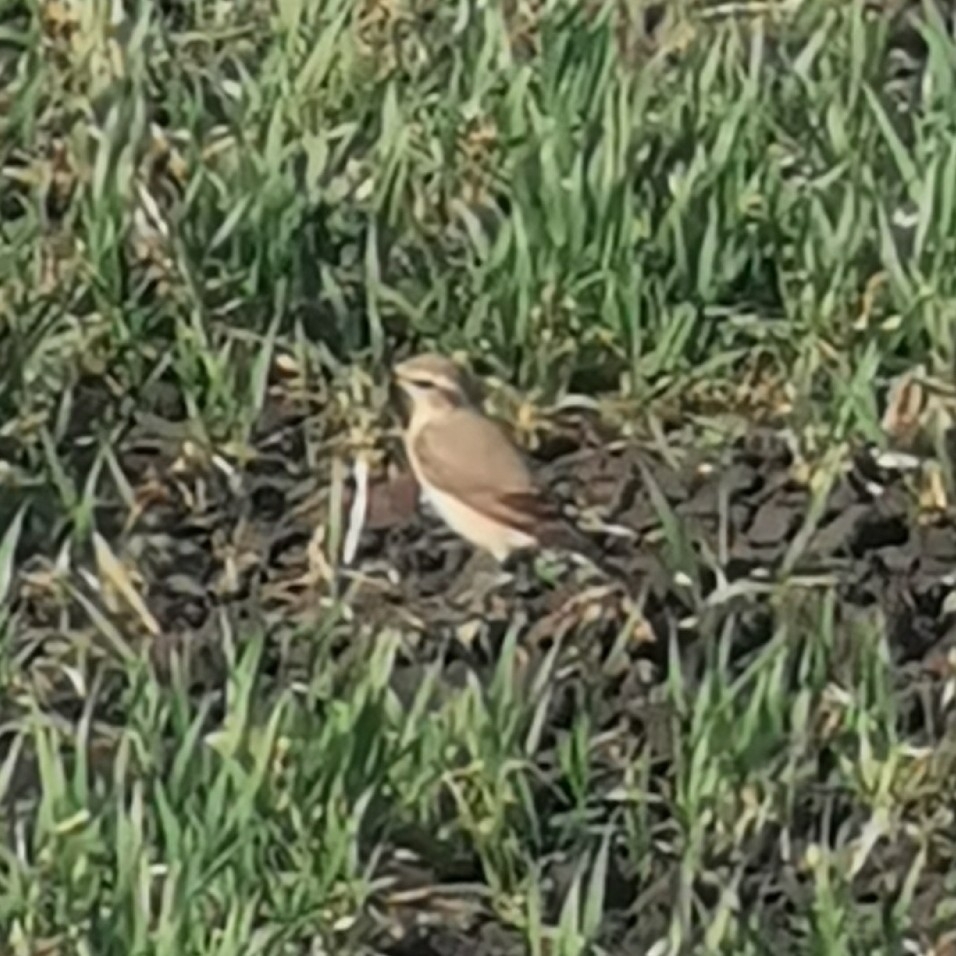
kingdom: Animalia
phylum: Chordata
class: Aves
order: Passeriformes
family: Muscicapidae
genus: Oenanthe
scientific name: Oenanthe oenanthe
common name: Northern wheatear
